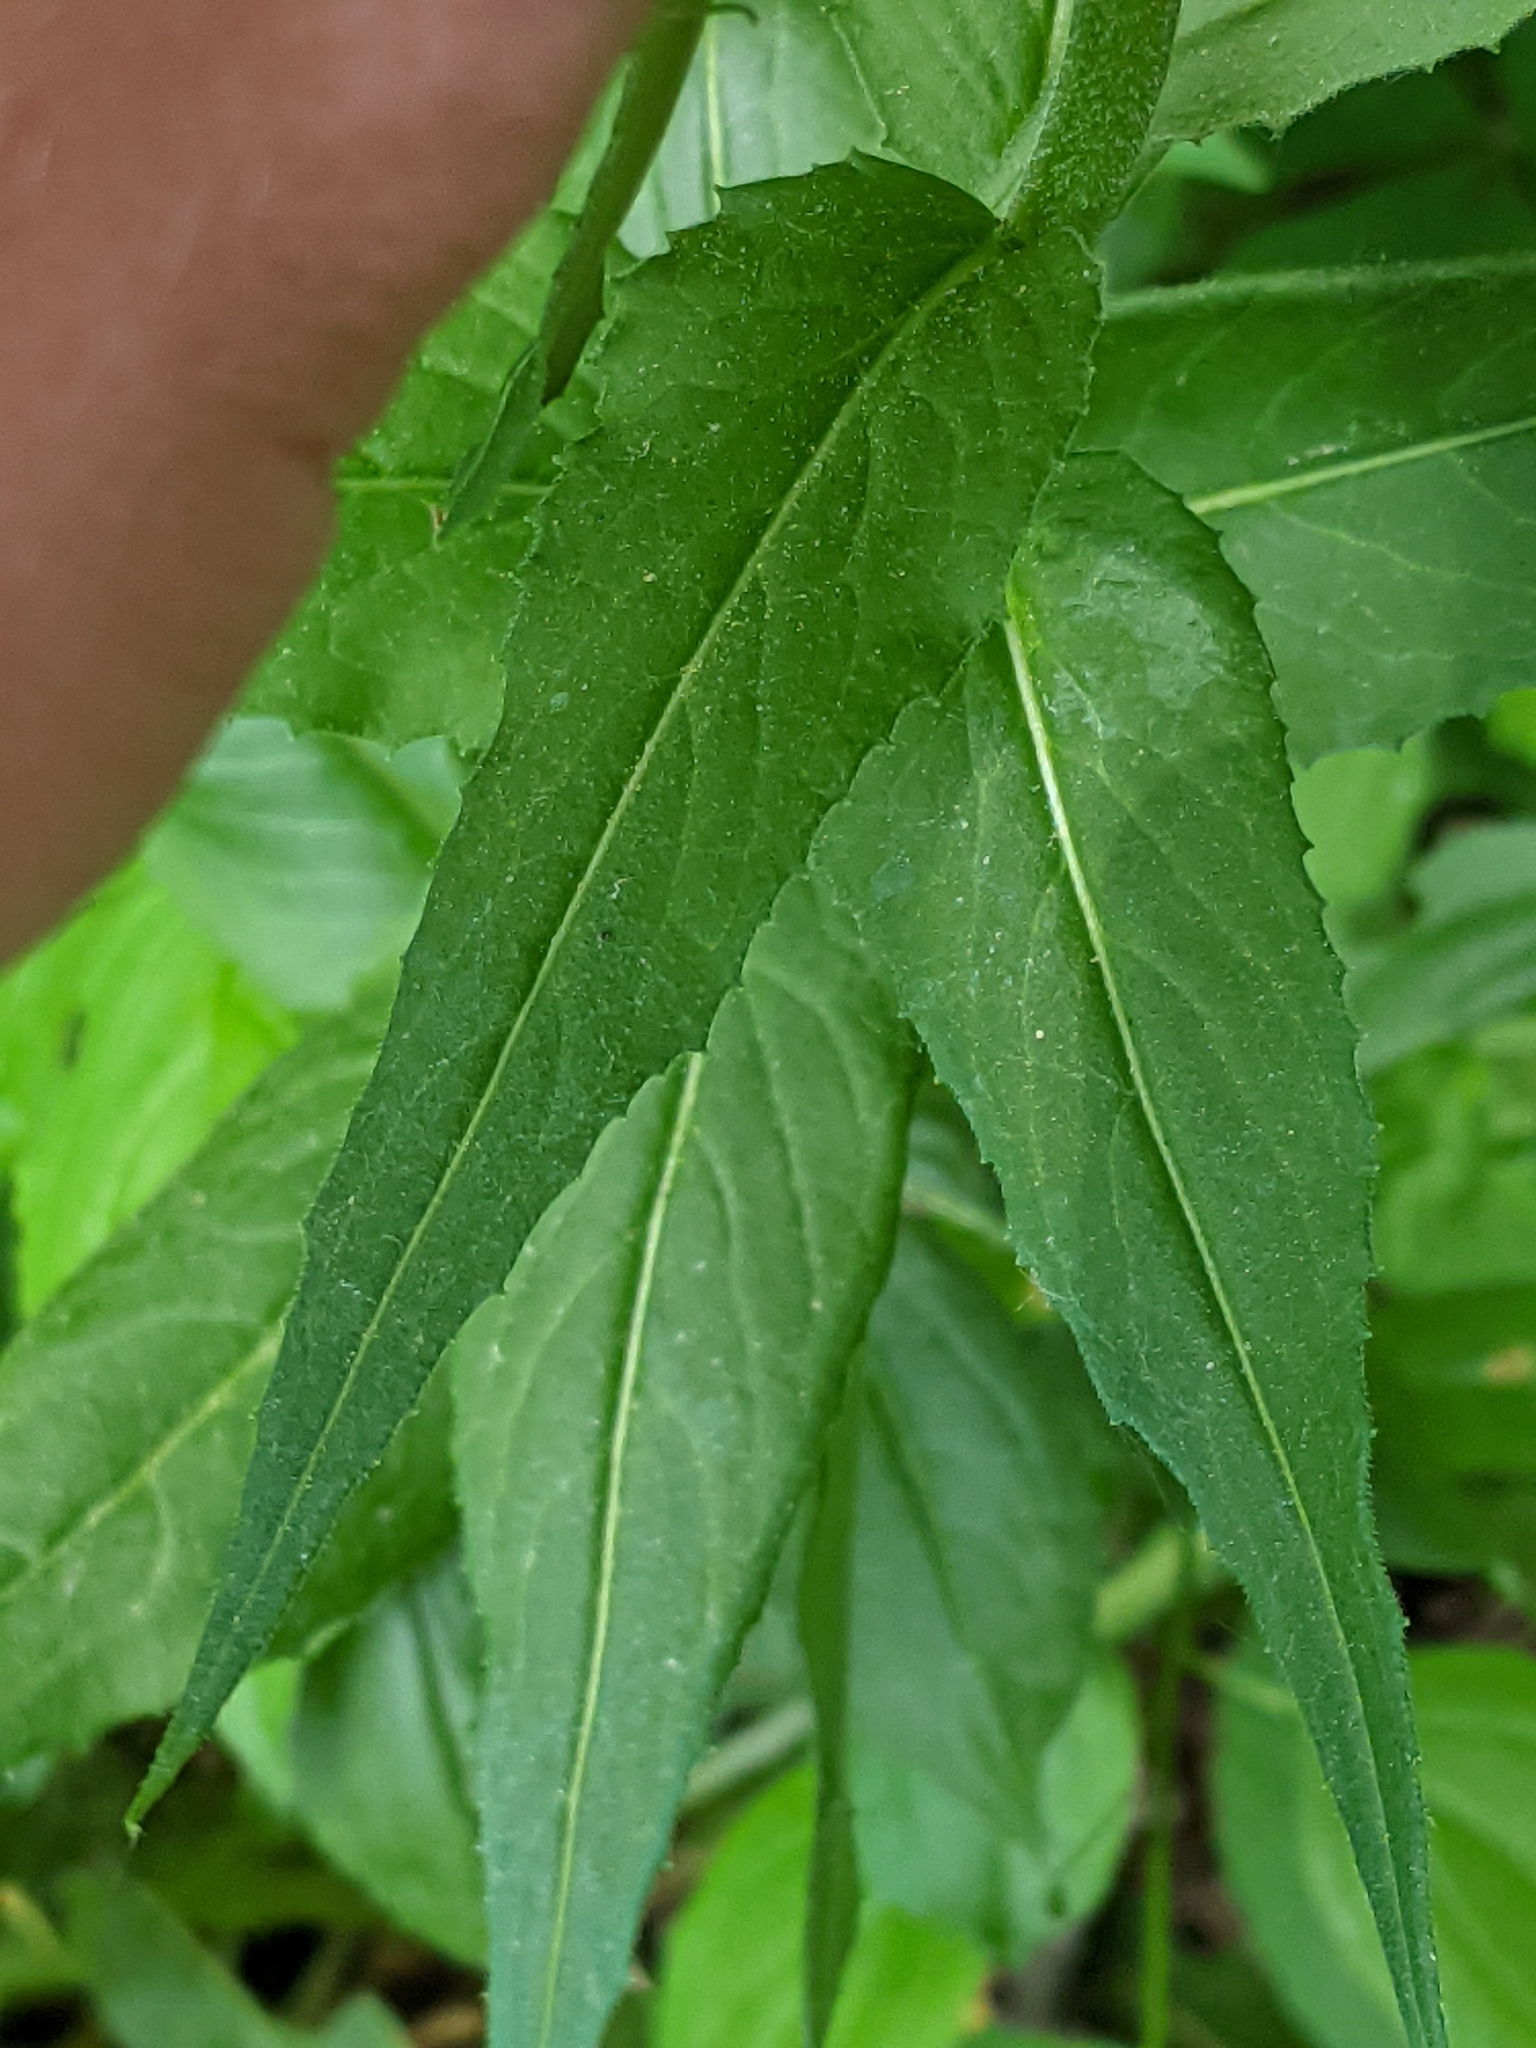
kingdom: Plantae
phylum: Tracheophyta
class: Magnoliopsida
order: Brassicales
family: Brassicaceae
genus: Hesperis
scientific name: Hesperis matronalis
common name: Dame's-violet
